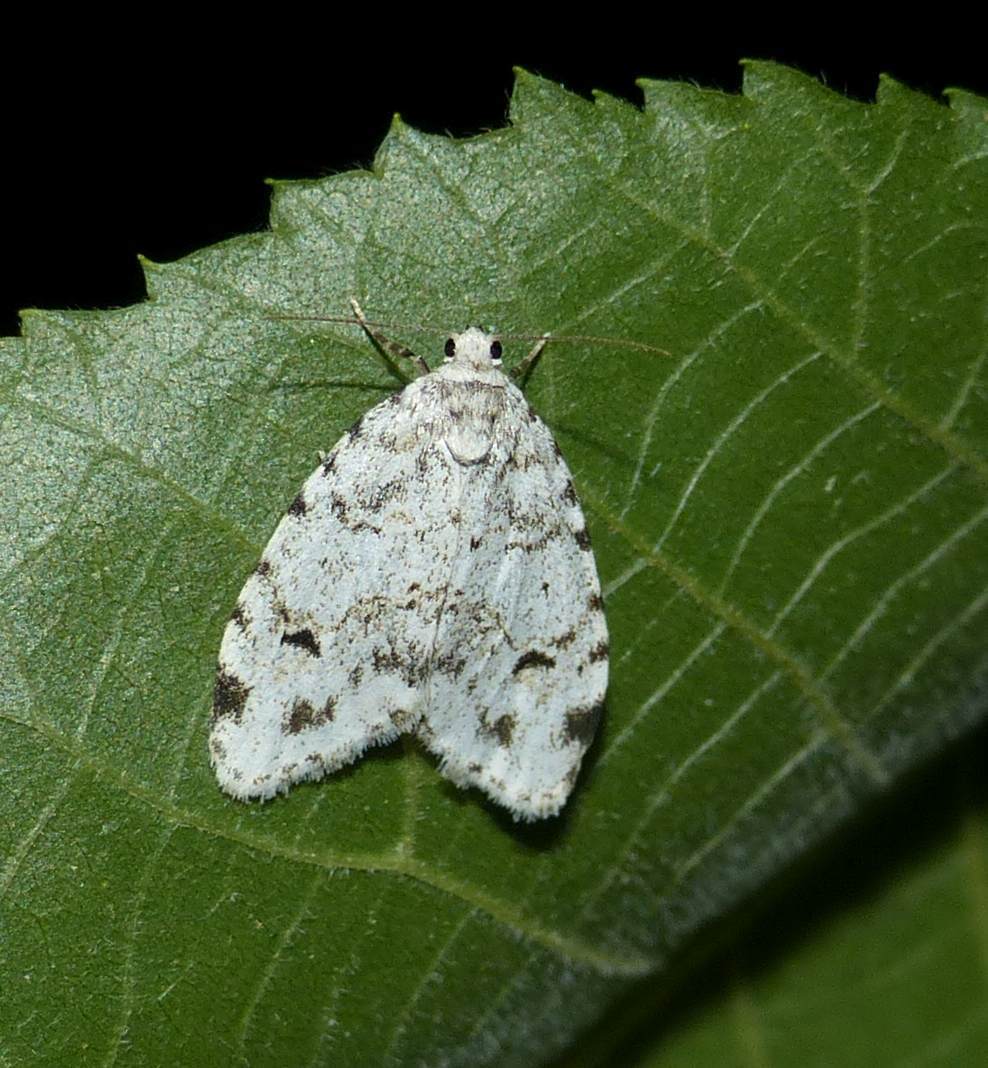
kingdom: Animalia
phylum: Arthropoda
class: Insecta
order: Lepidoptera
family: Erebidae
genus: Clemensia
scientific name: Clemensia albata
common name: Little white lichen moth
